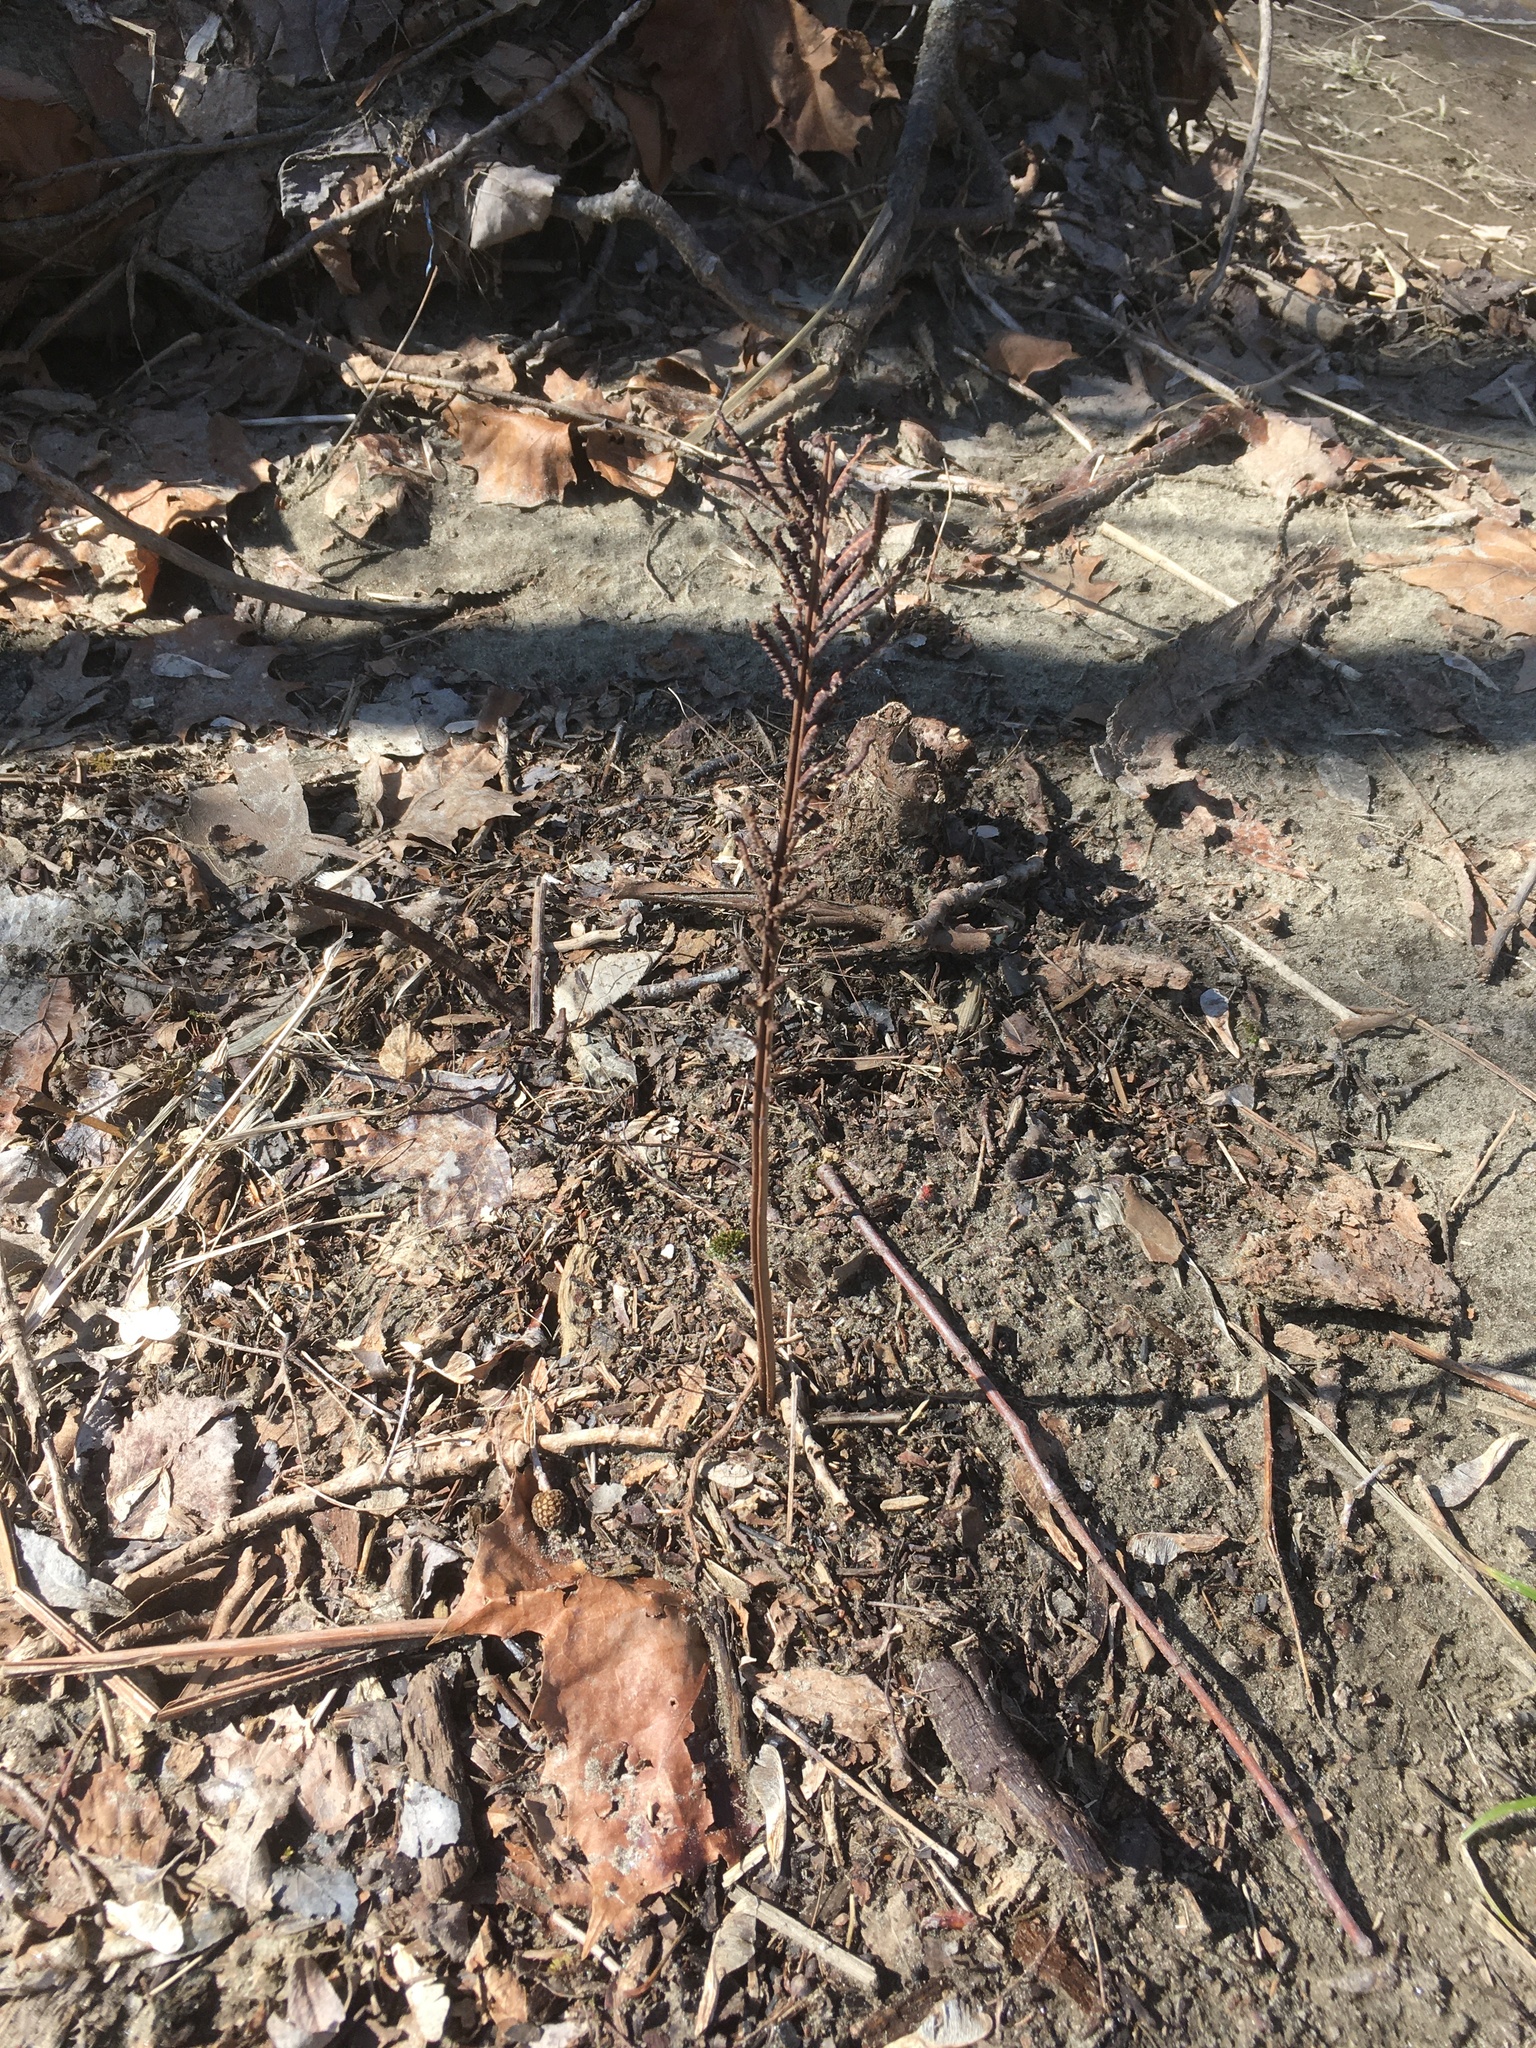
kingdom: Plantae
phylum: Tracheophyta
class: Polypodiopsida
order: Polypodiales
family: Onocleaceae
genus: Matteuccia
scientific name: Matteuccia struthiopteris
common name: Ostrich fern
